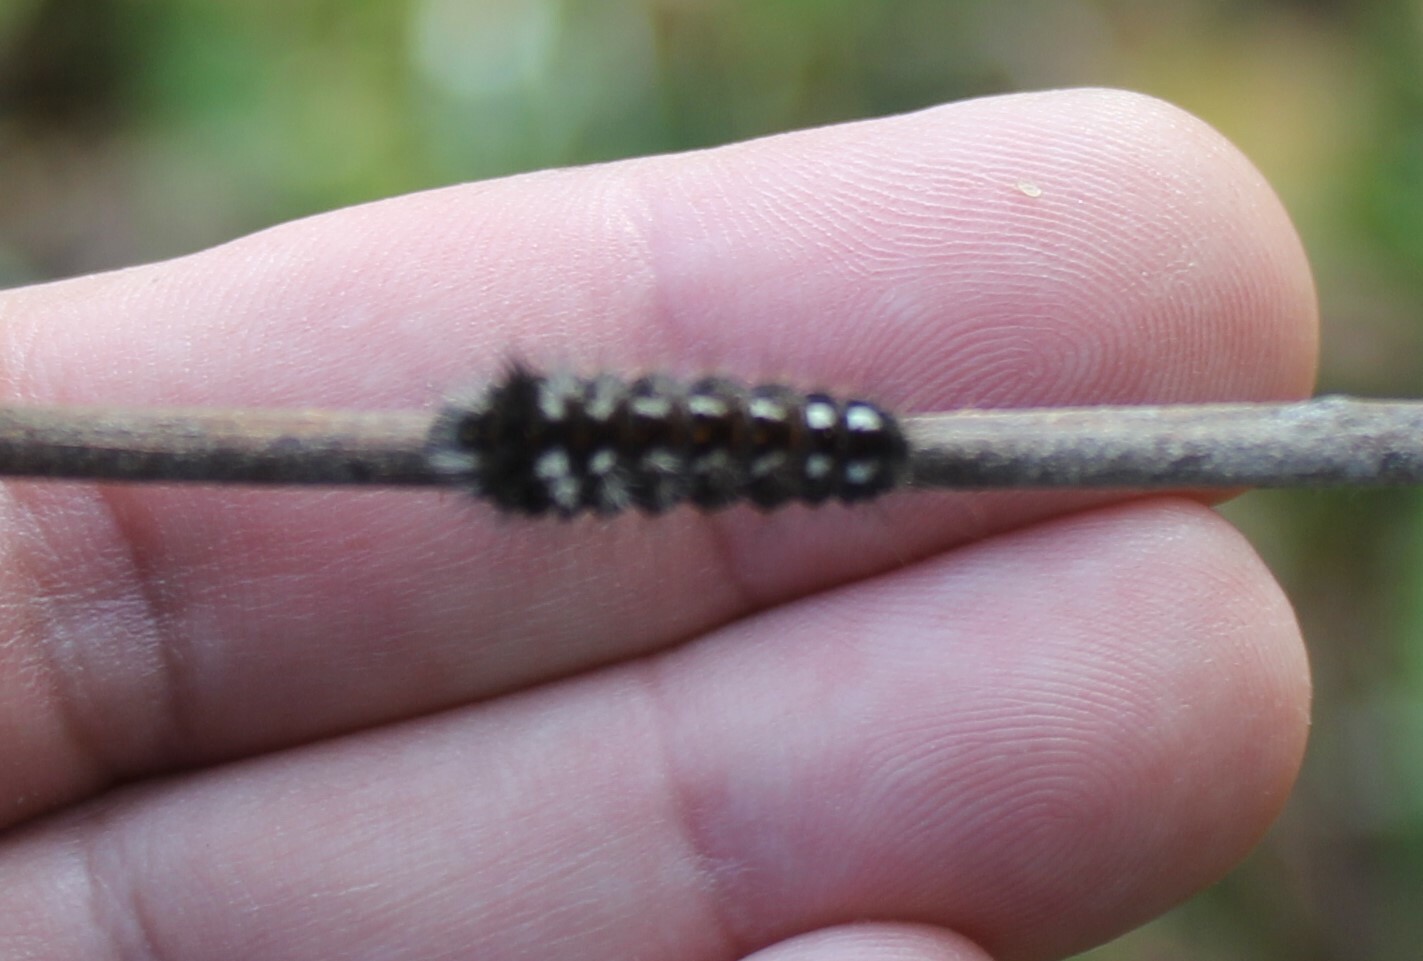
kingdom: Animalia
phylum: Arthropoda
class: Insecta
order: Lepidoptera
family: Noctuidae
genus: Acronicta
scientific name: Acronicta rumicis
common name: Knot grass
